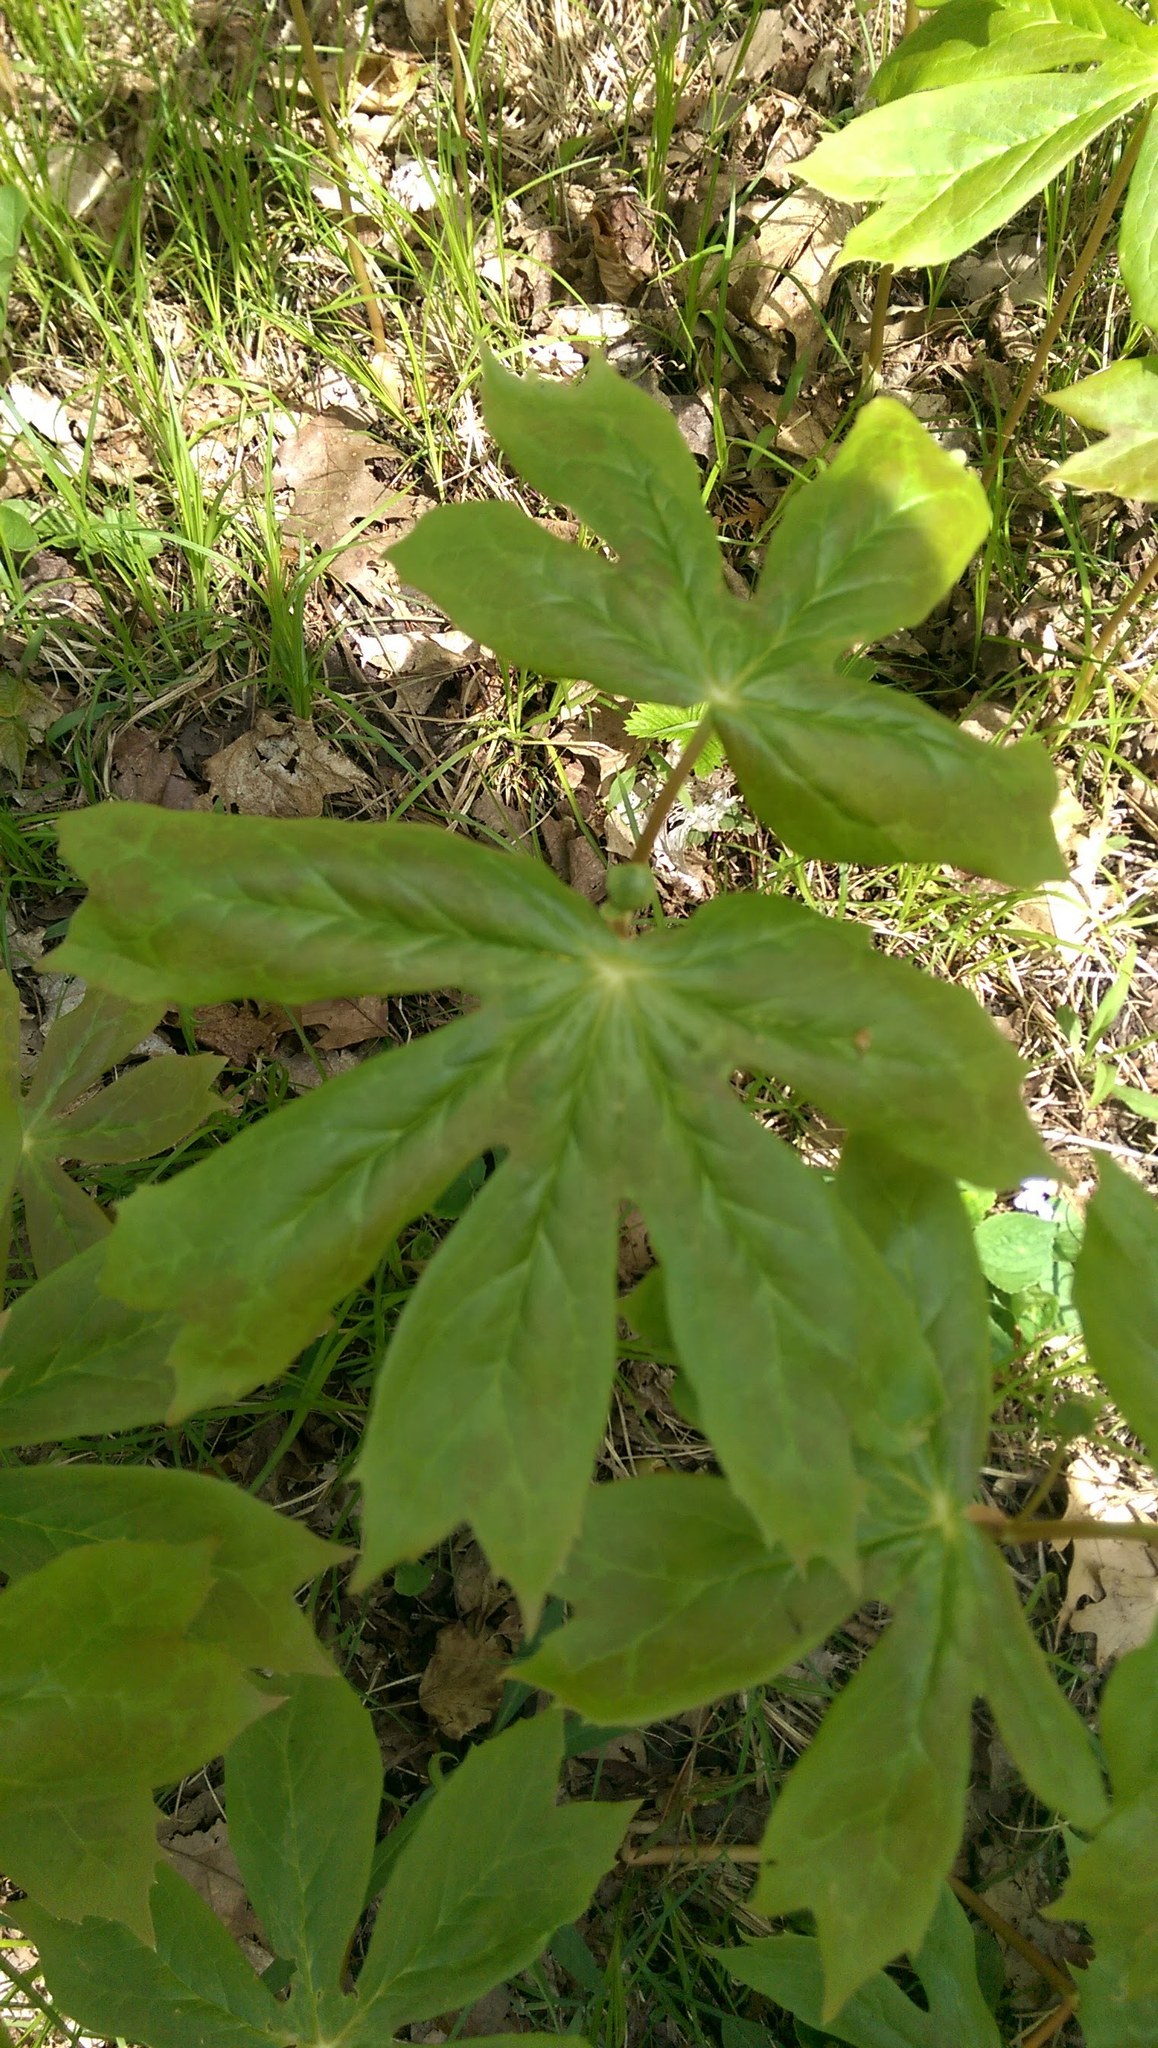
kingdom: Plantae
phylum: Tracheophyta
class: Magnoliopsida
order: Ranunculales
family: Berberidaceae
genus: Podophyllum
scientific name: Podophyllum peltatum
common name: Wild mandrake
